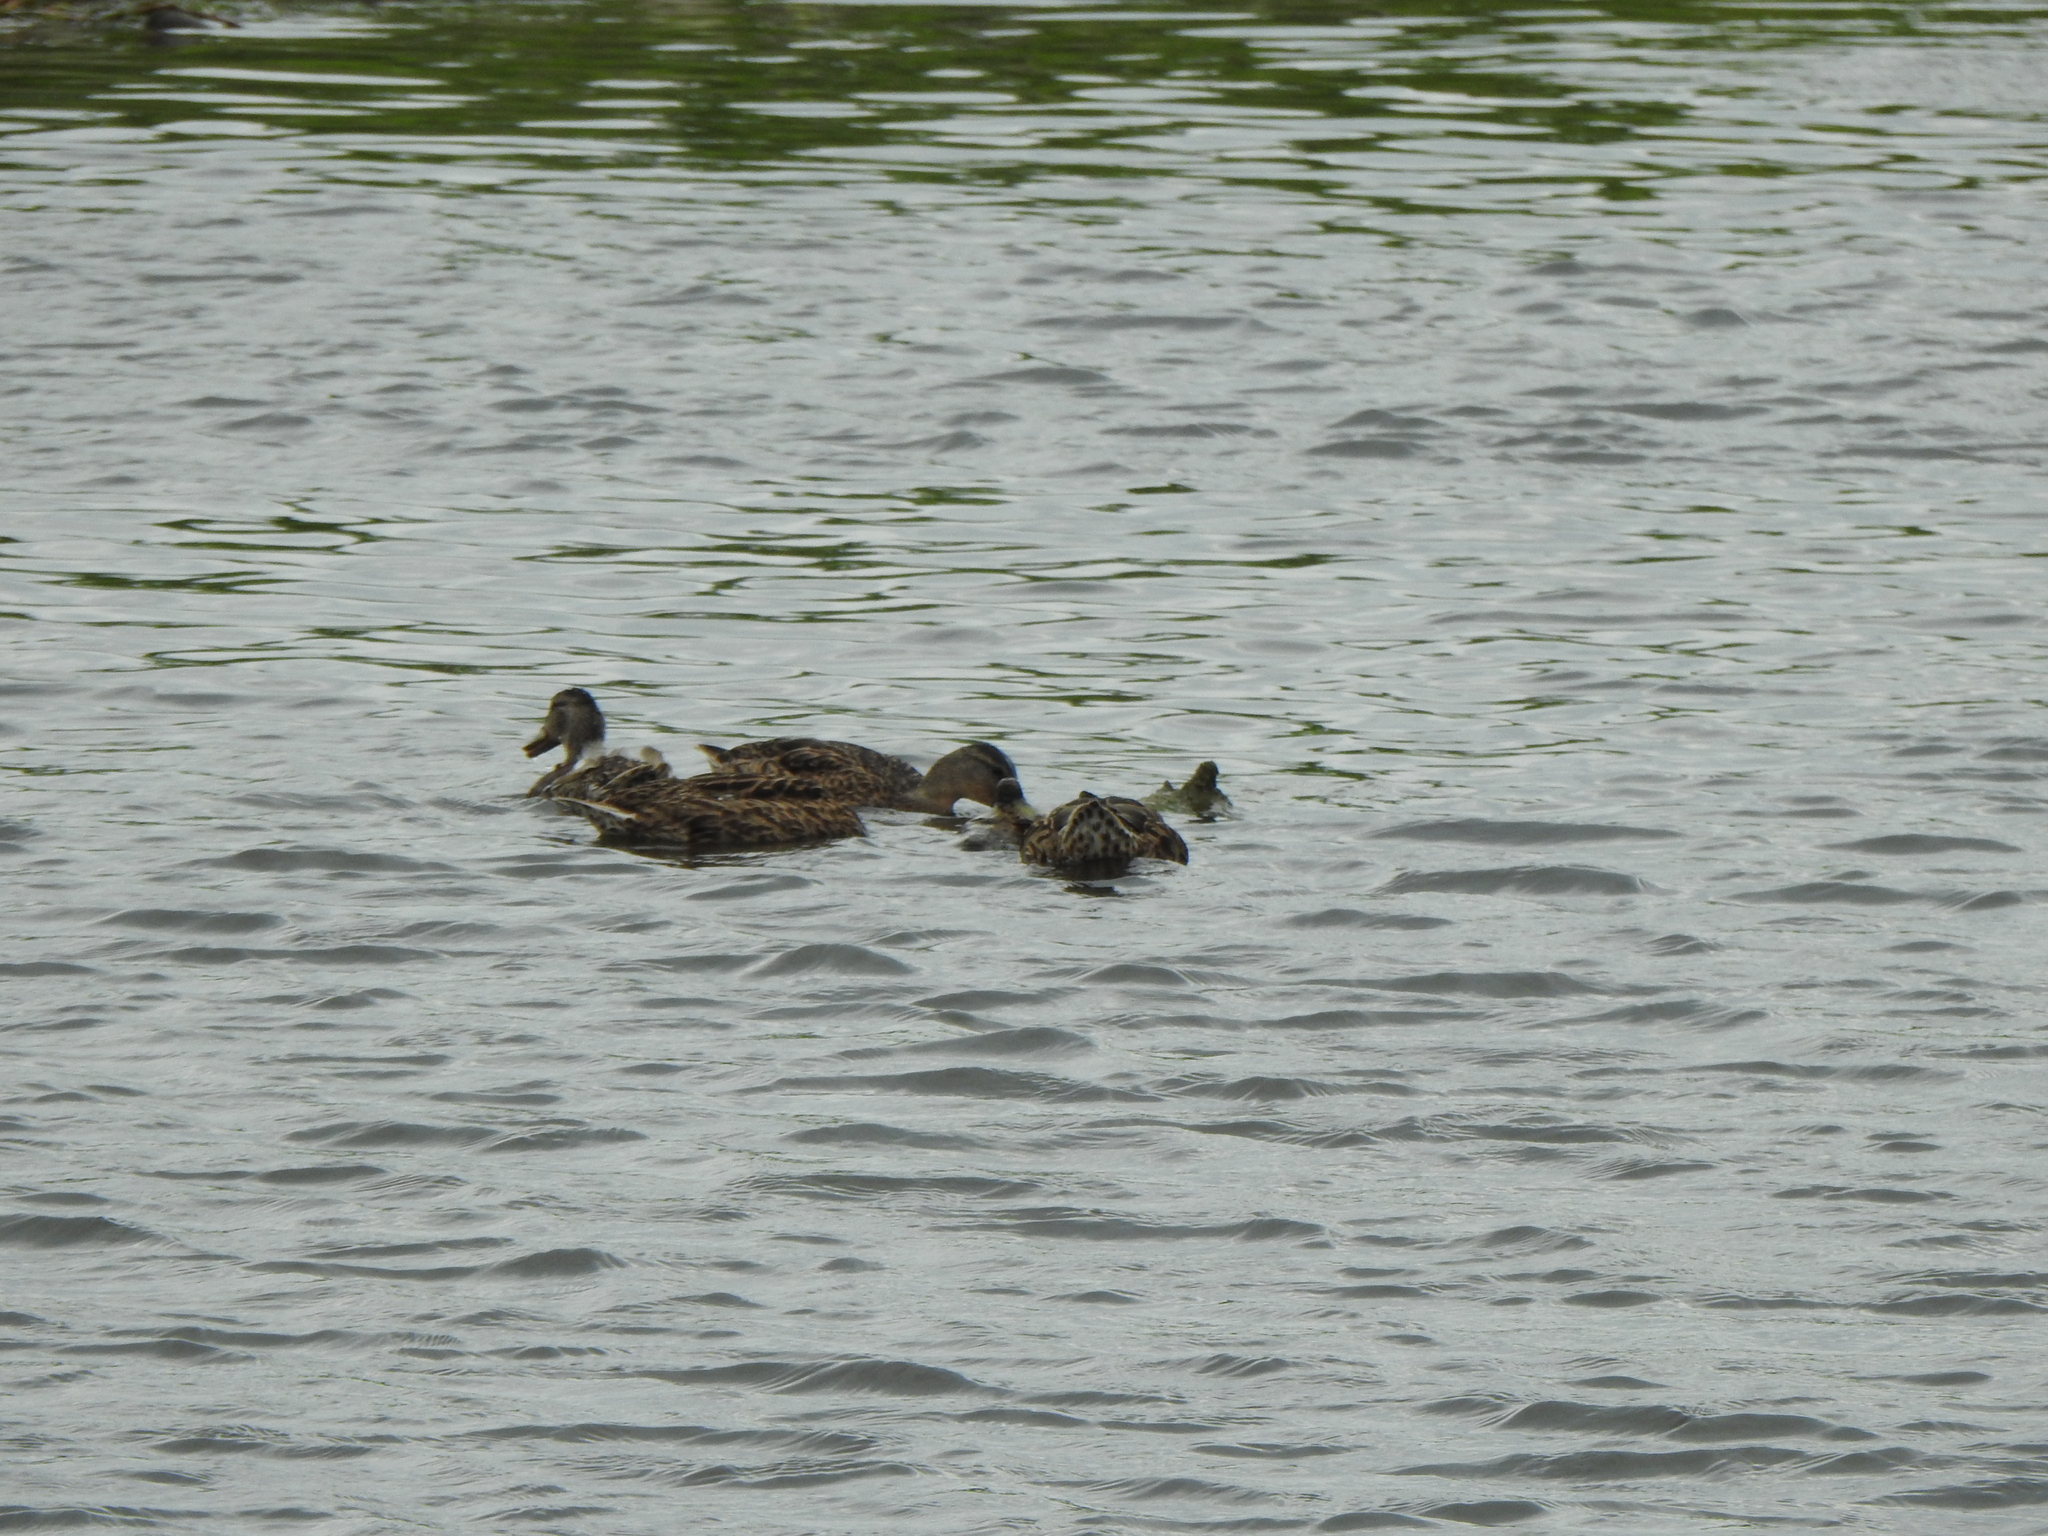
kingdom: Animalia
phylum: Chordata
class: Aves
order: Anseriformes
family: Anatidae
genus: Anas
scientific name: Anas platyrhynchos
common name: Mallard
